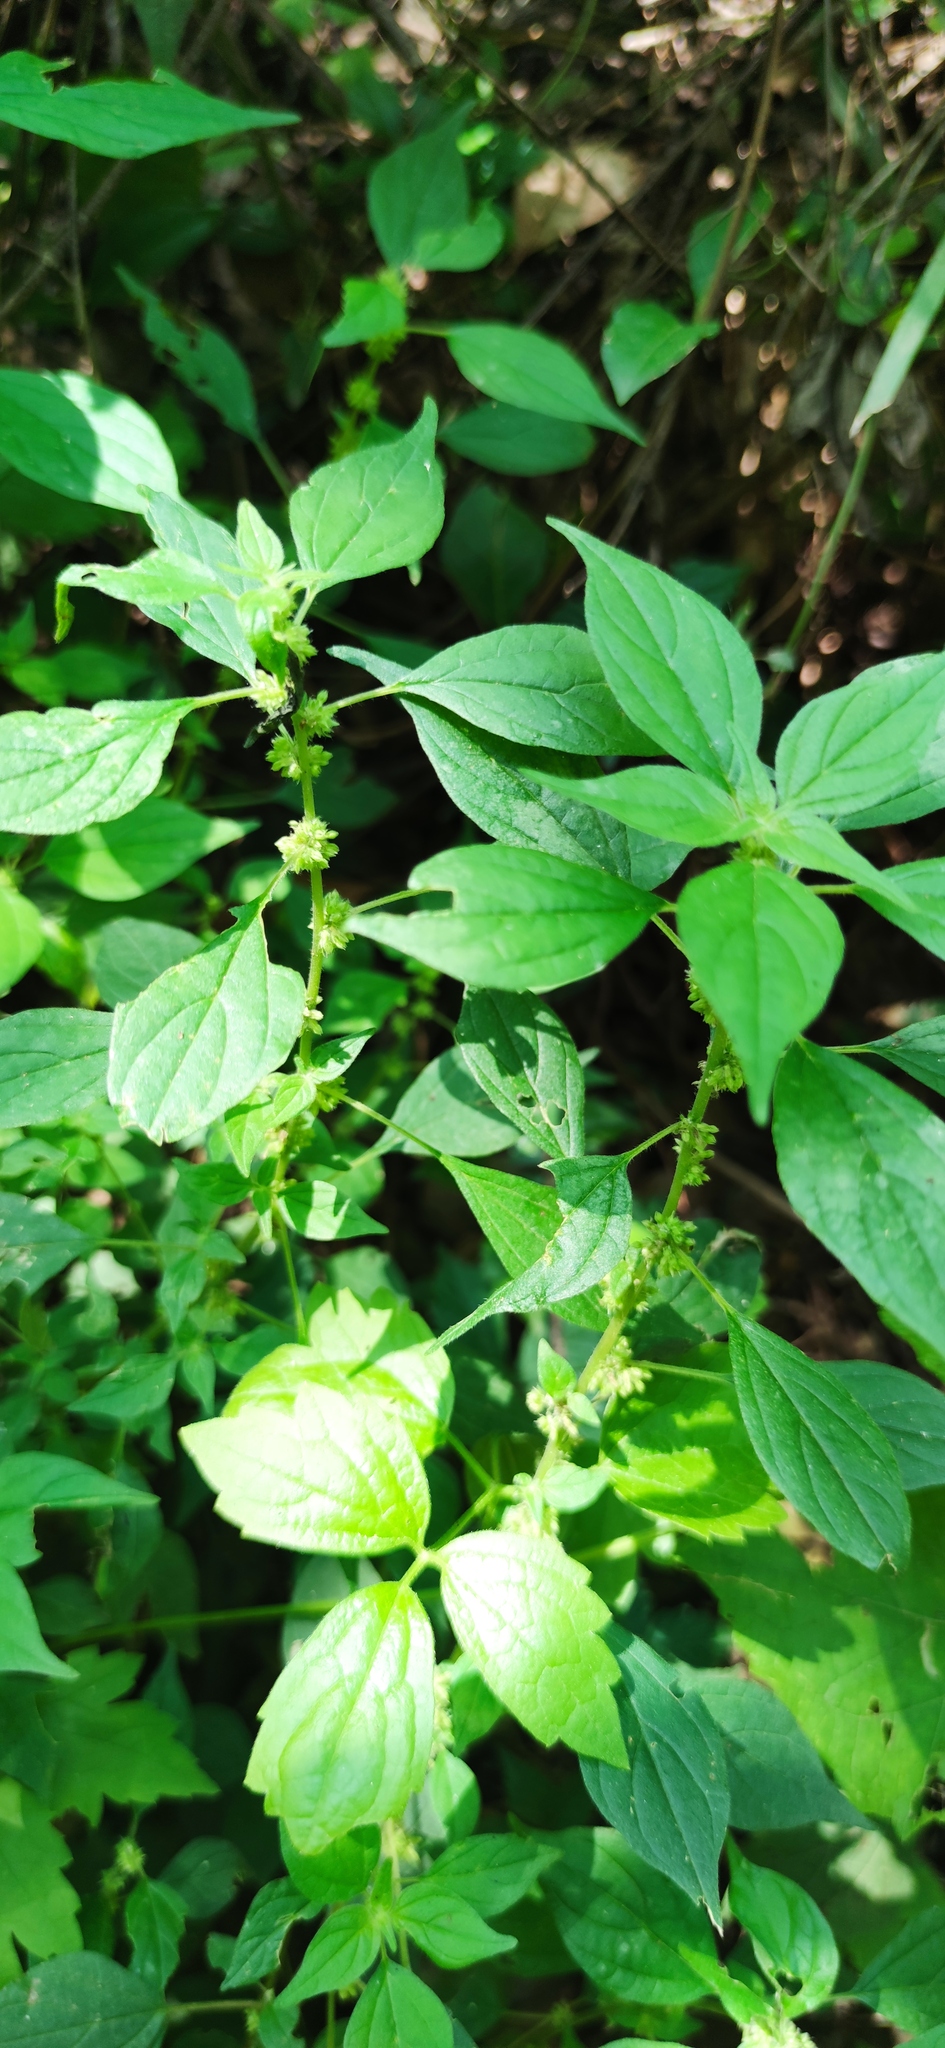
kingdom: Plantae
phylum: Tracheophyta
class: Magnoliopsida
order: Rosales
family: Urticaceae
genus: Parietaria
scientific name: Parietaria officinalis
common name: Eastern pellitory-of-the-wall
